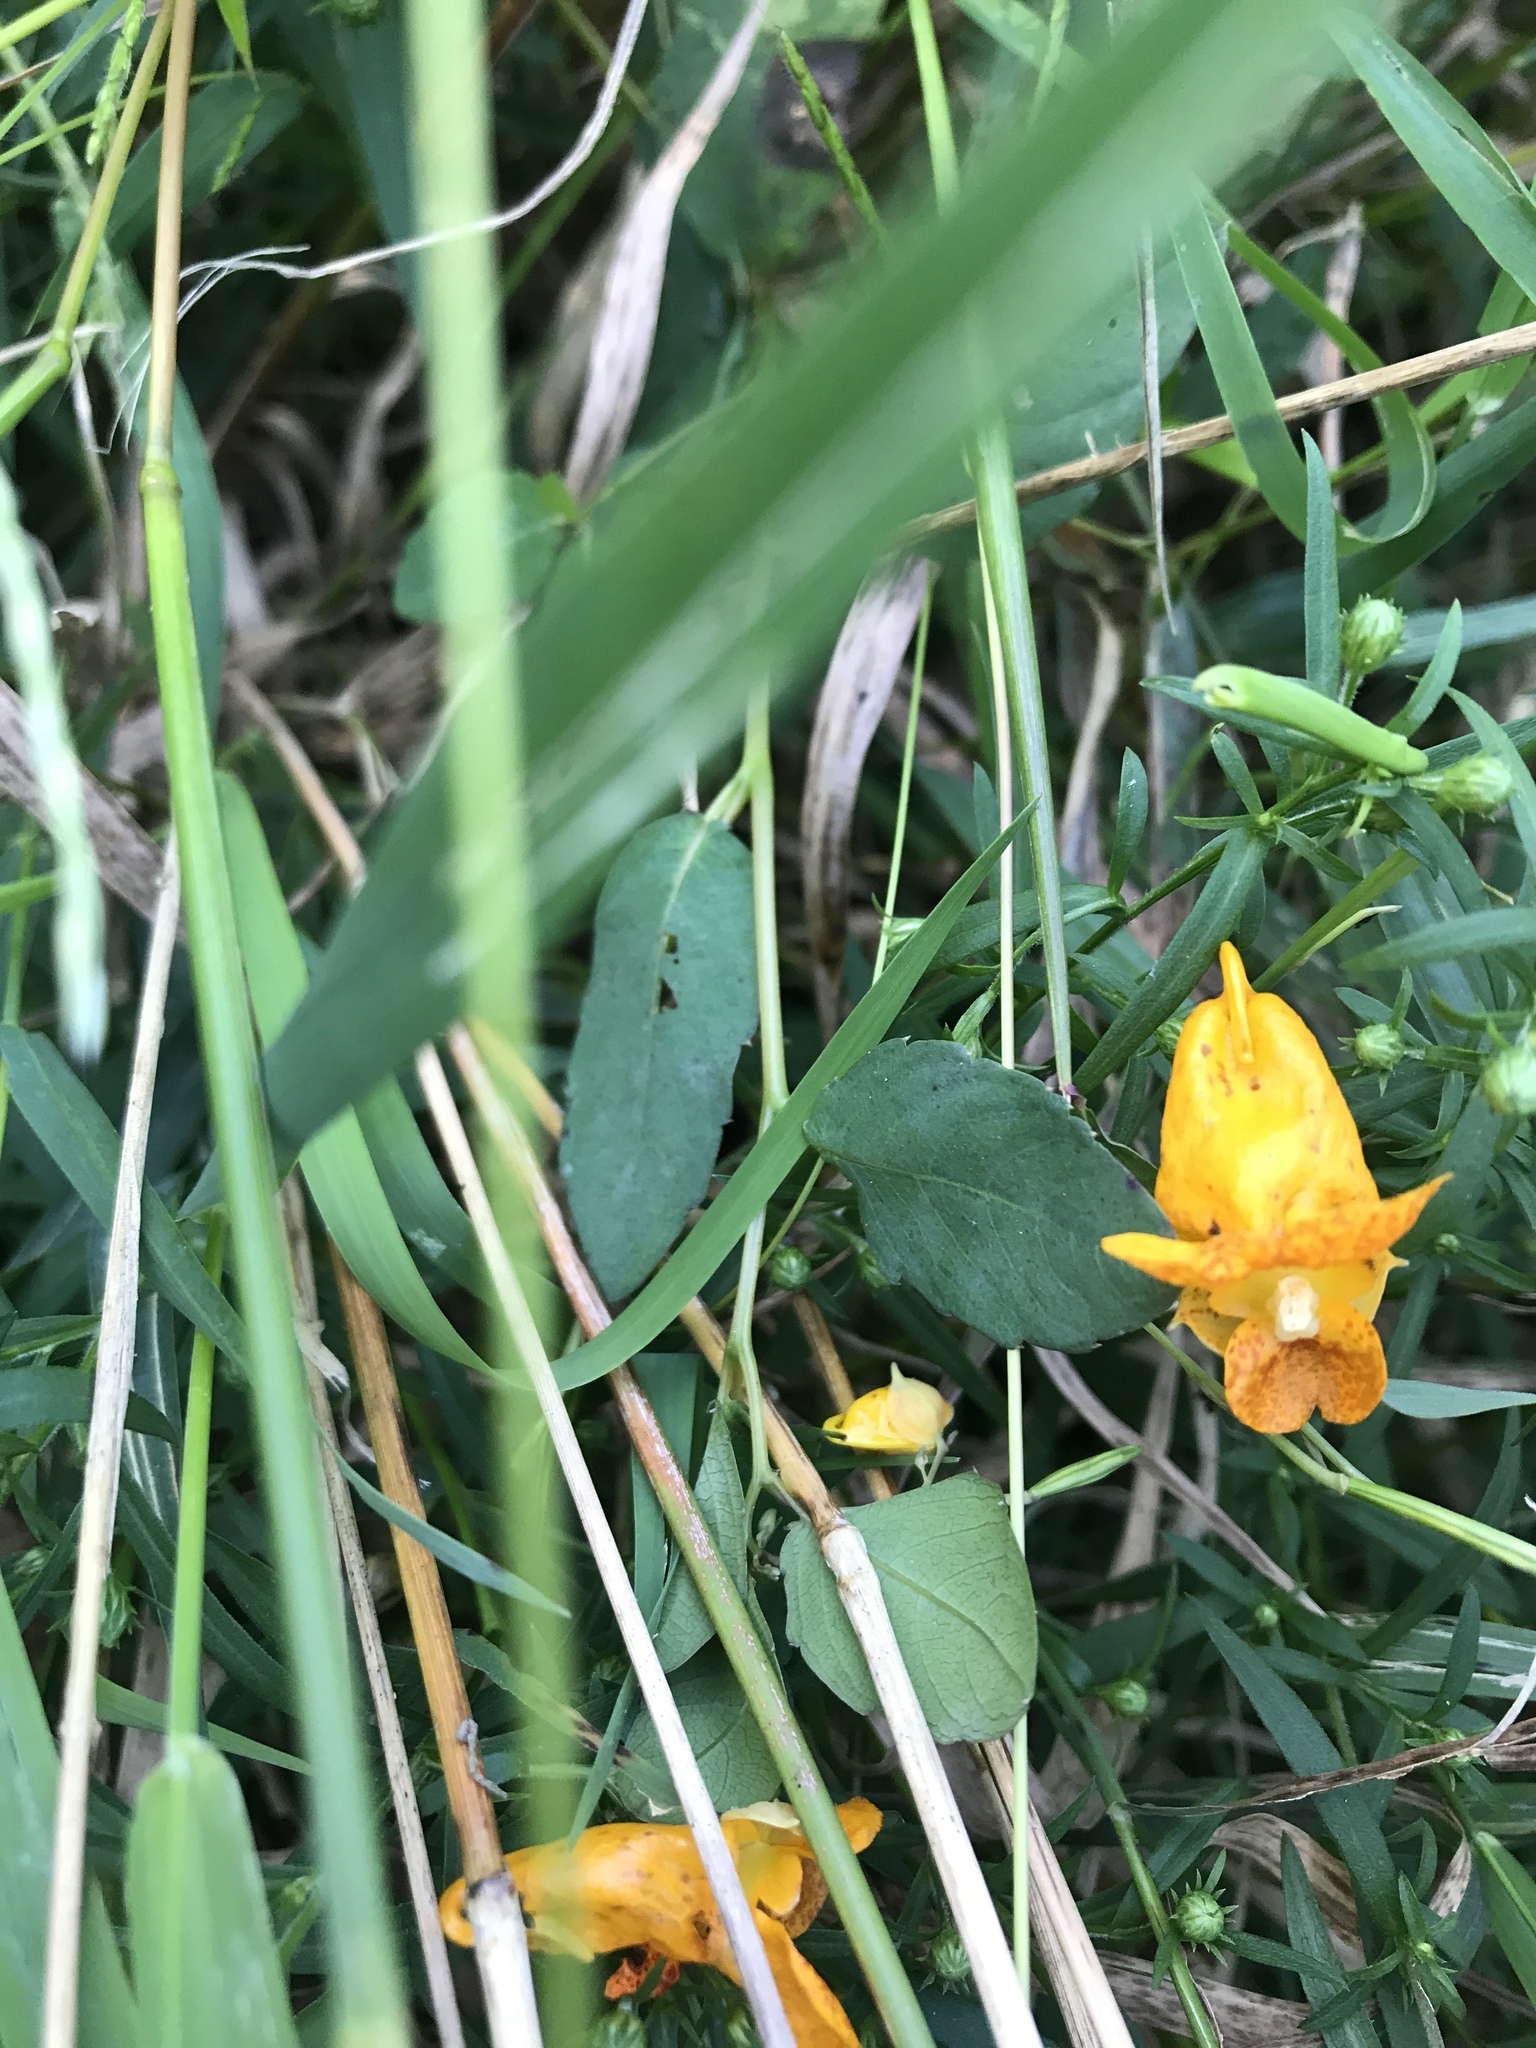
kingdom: Plantae
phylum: Tracheophyta
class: Magnoliopsida
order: Ericales
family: Balsaminaceae
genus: Impatiens
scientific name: Impatiens capensis
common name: Orange balsam
